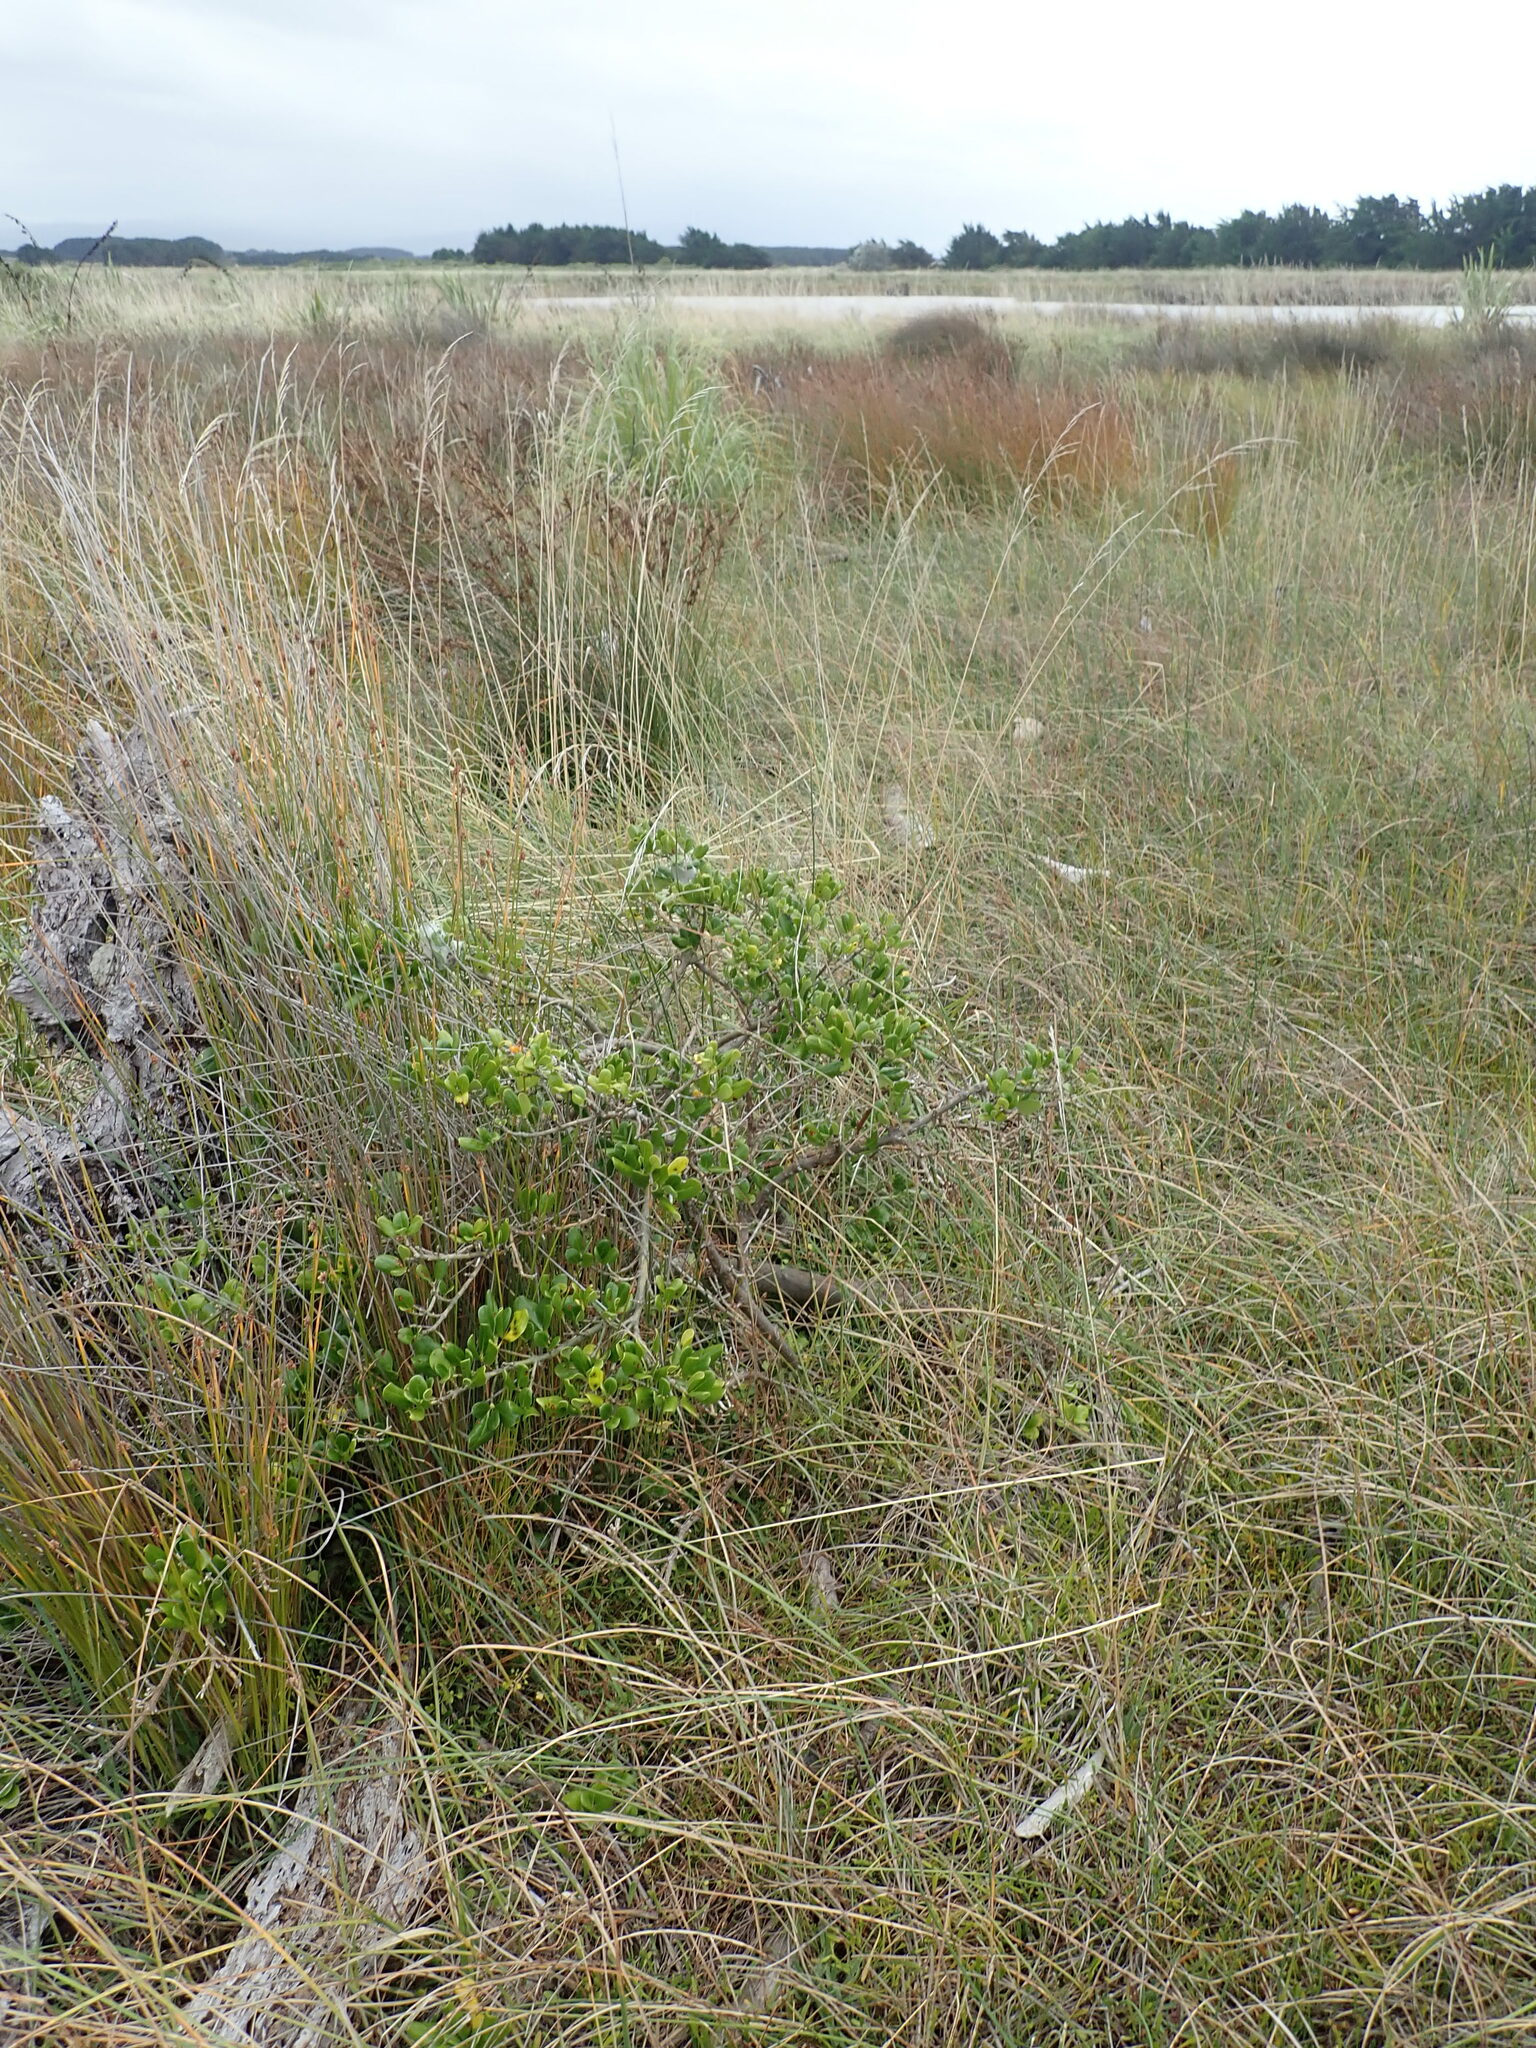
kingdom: Plantae
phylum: Tracheophyta
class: Magnoliopsida
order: Gentianales
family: Rubiaceae
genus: Coprosma
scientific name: Coprosma repens
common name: Tree bedstraw
